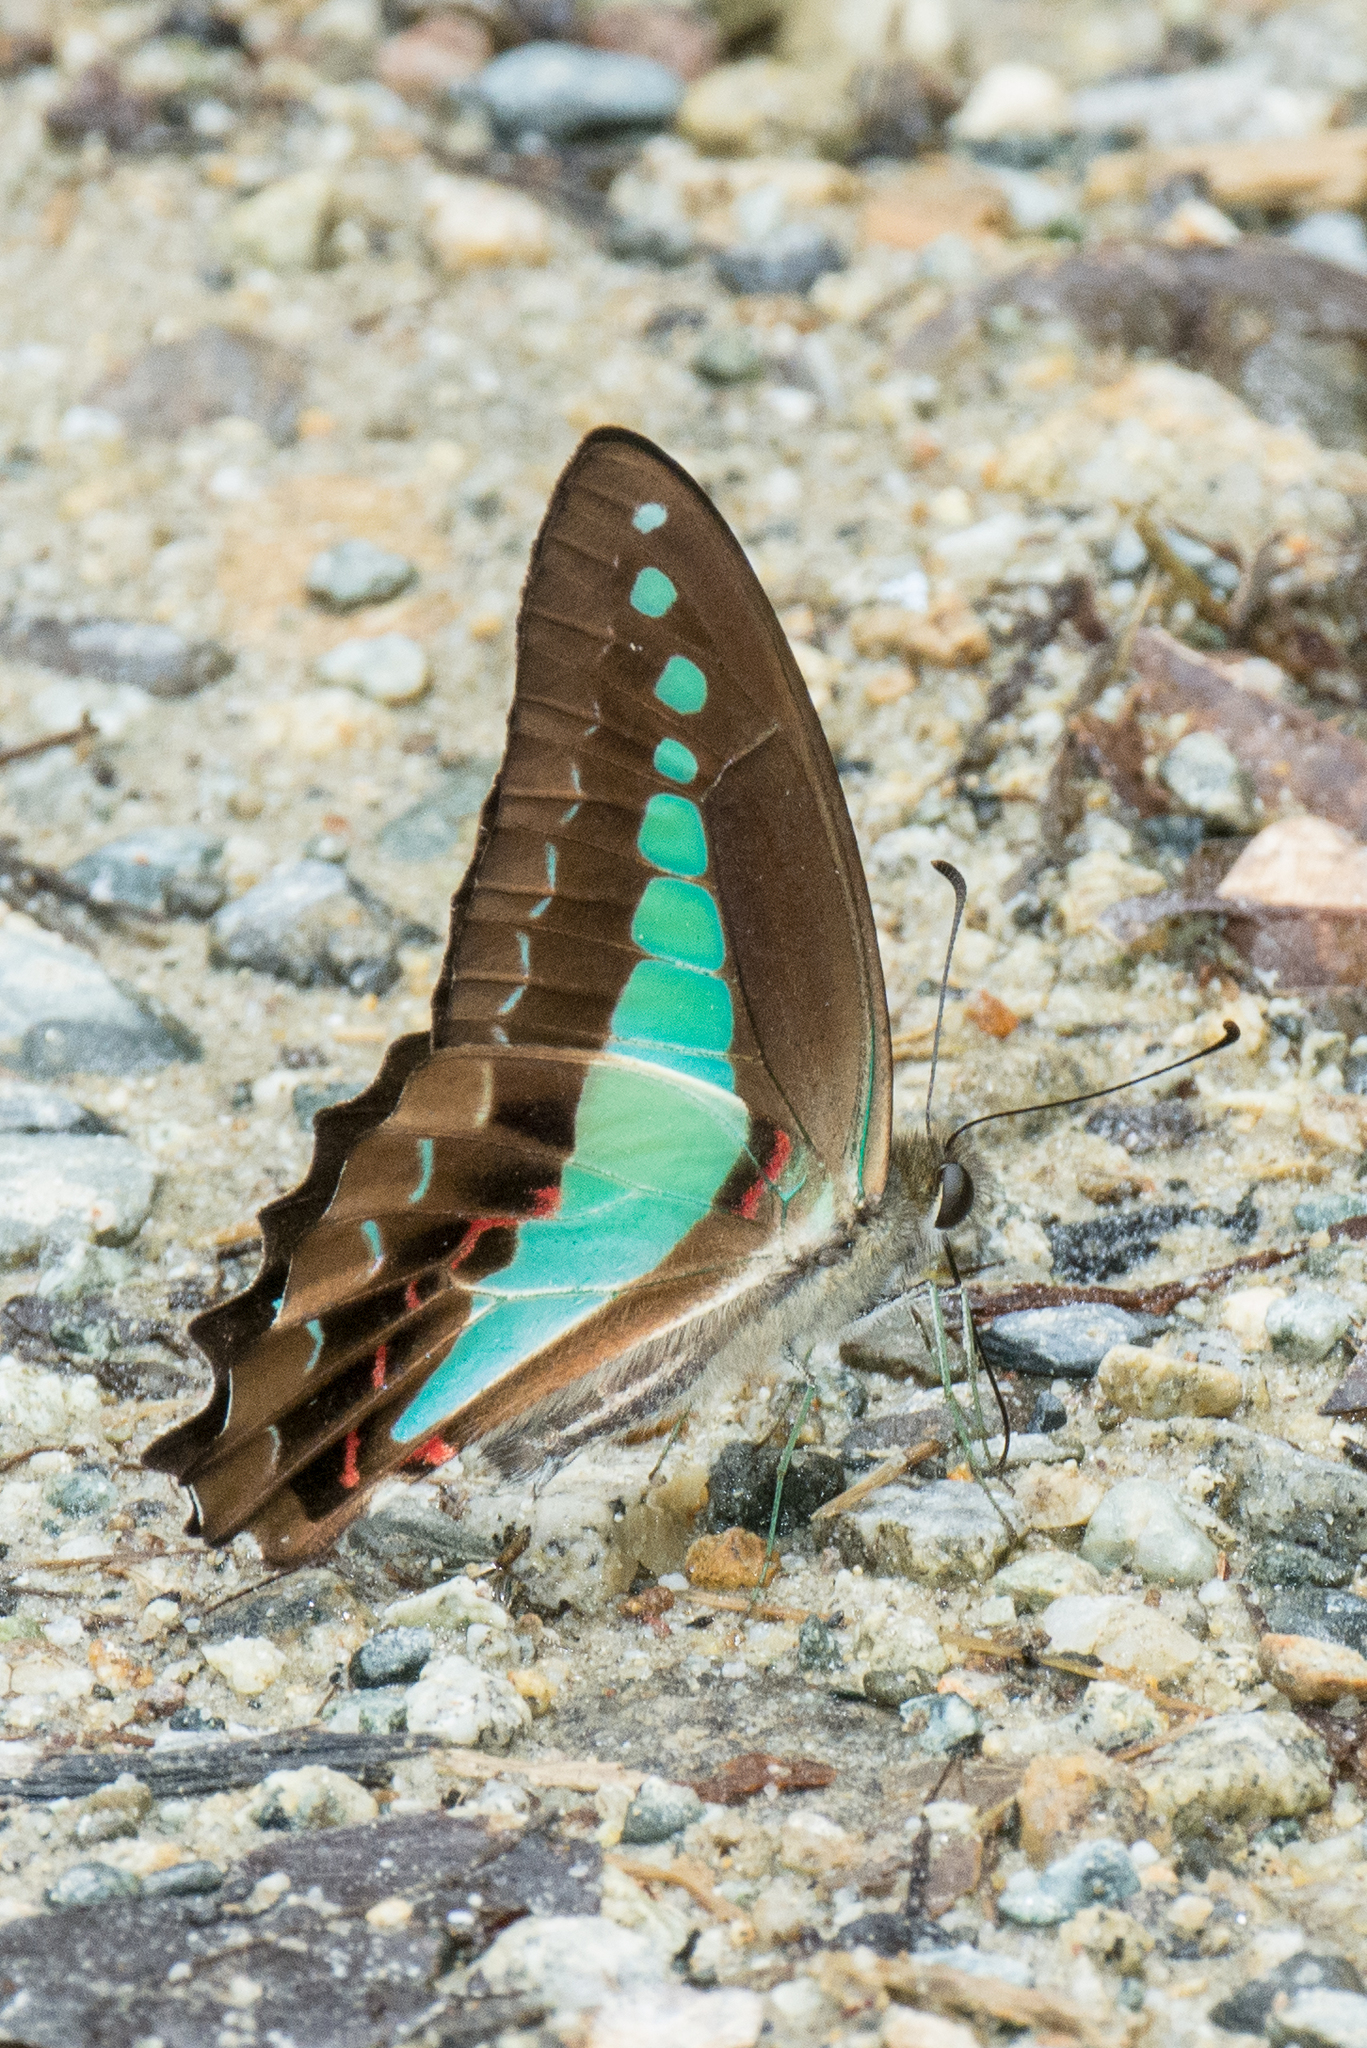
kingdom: Animalia
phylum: Arthropoda
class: Insecta
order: Lepidoptera
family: Papilionidae
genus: Graphium
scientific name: Graphium monticolus
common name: Sulawesi blue triangle
